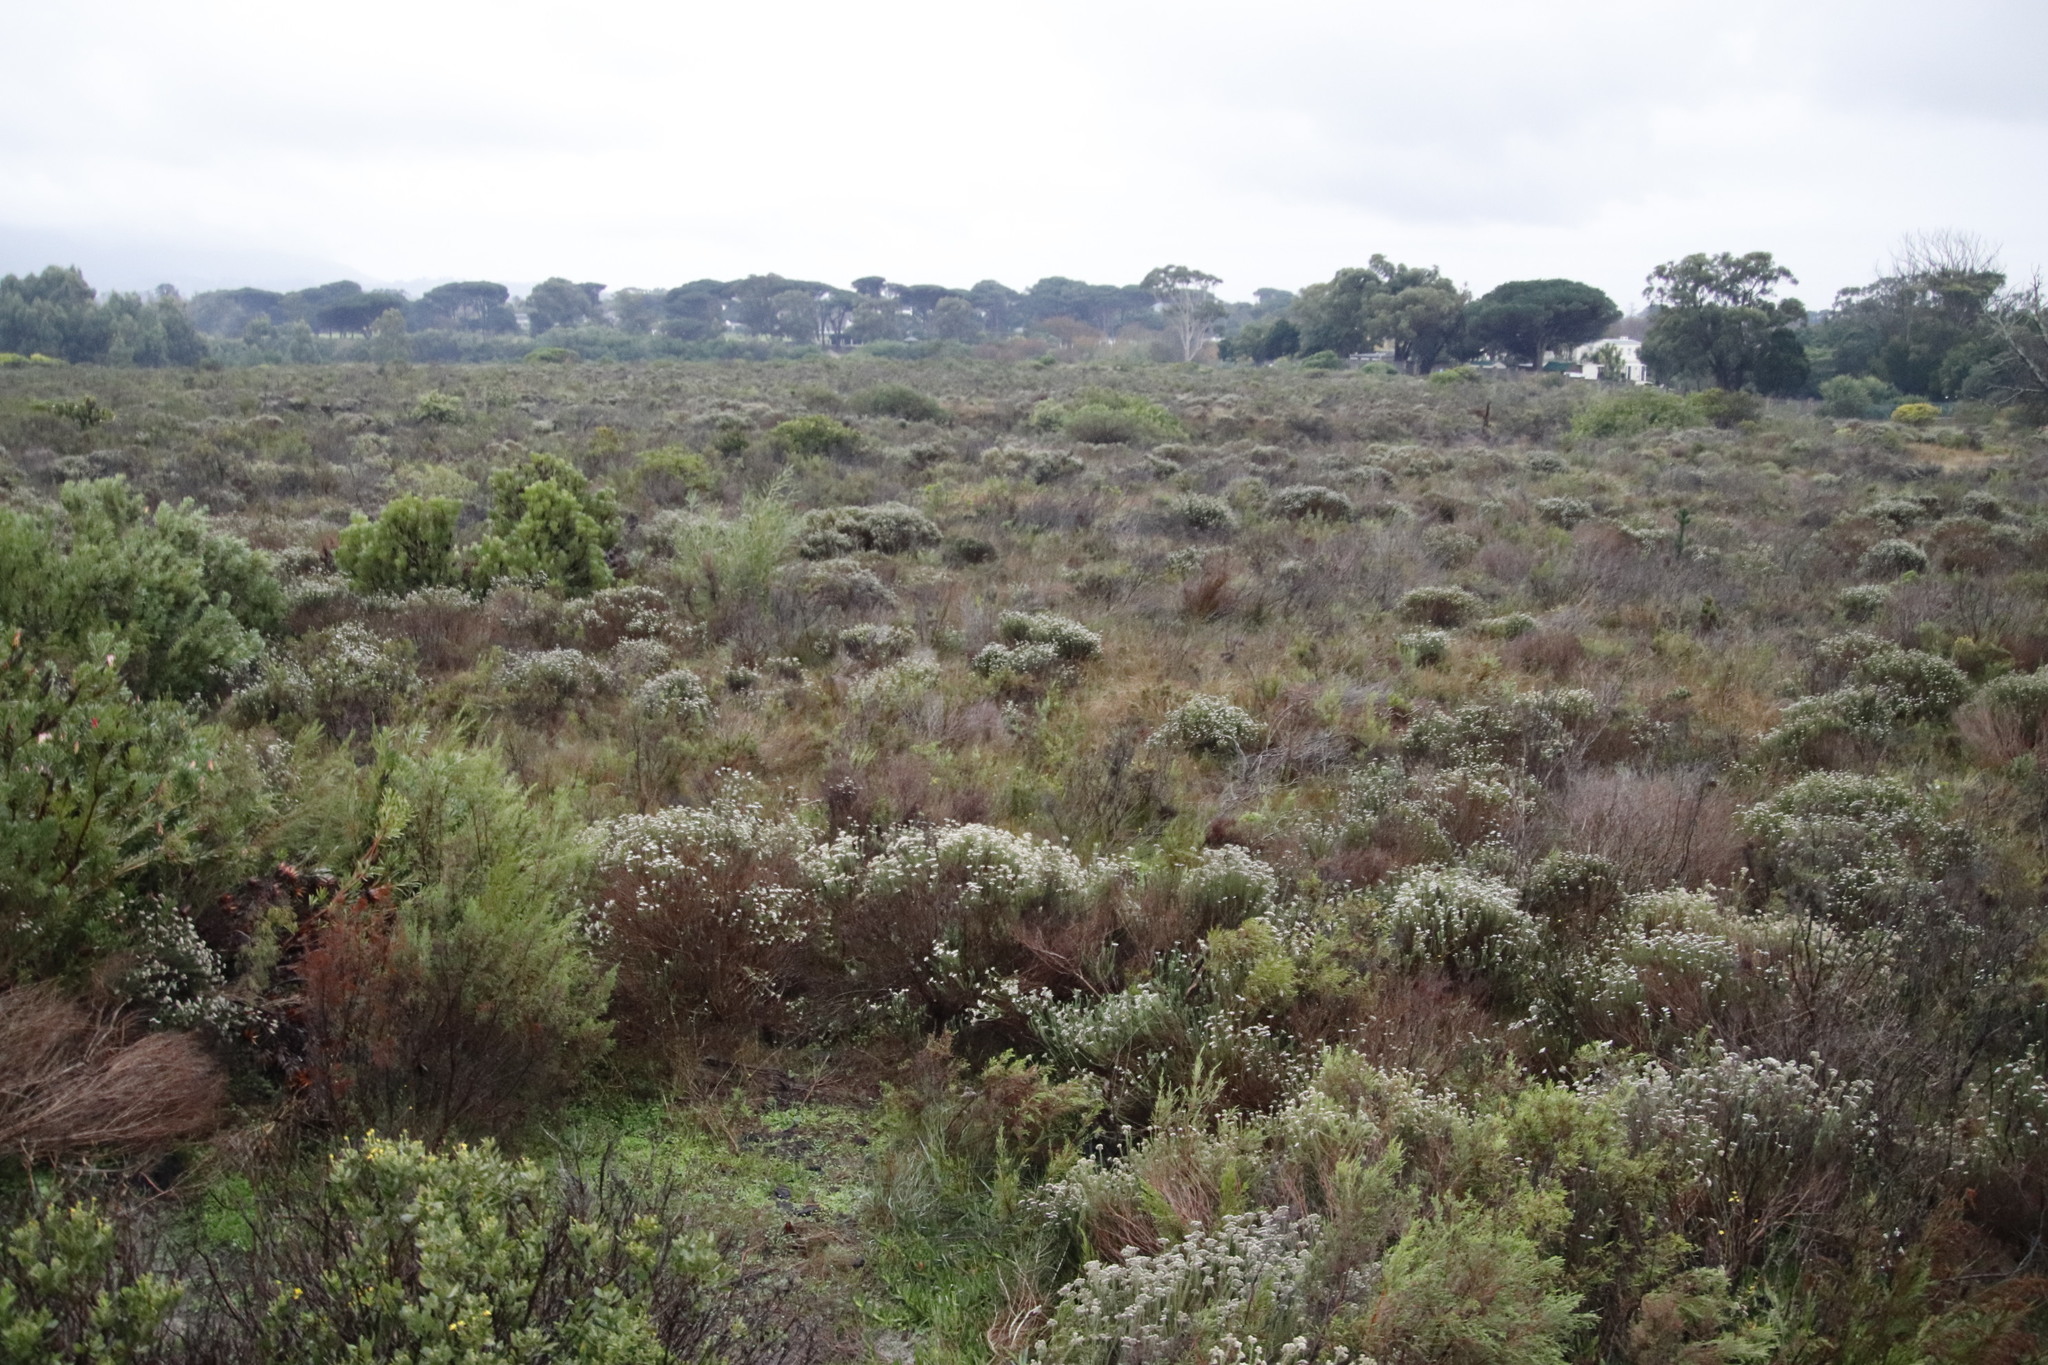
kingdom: Plantae
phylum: Tracheophyta
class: Magnoliopsida
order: Asterales
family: Asteraceae
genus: Metalasia
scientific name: Metalasia densa
